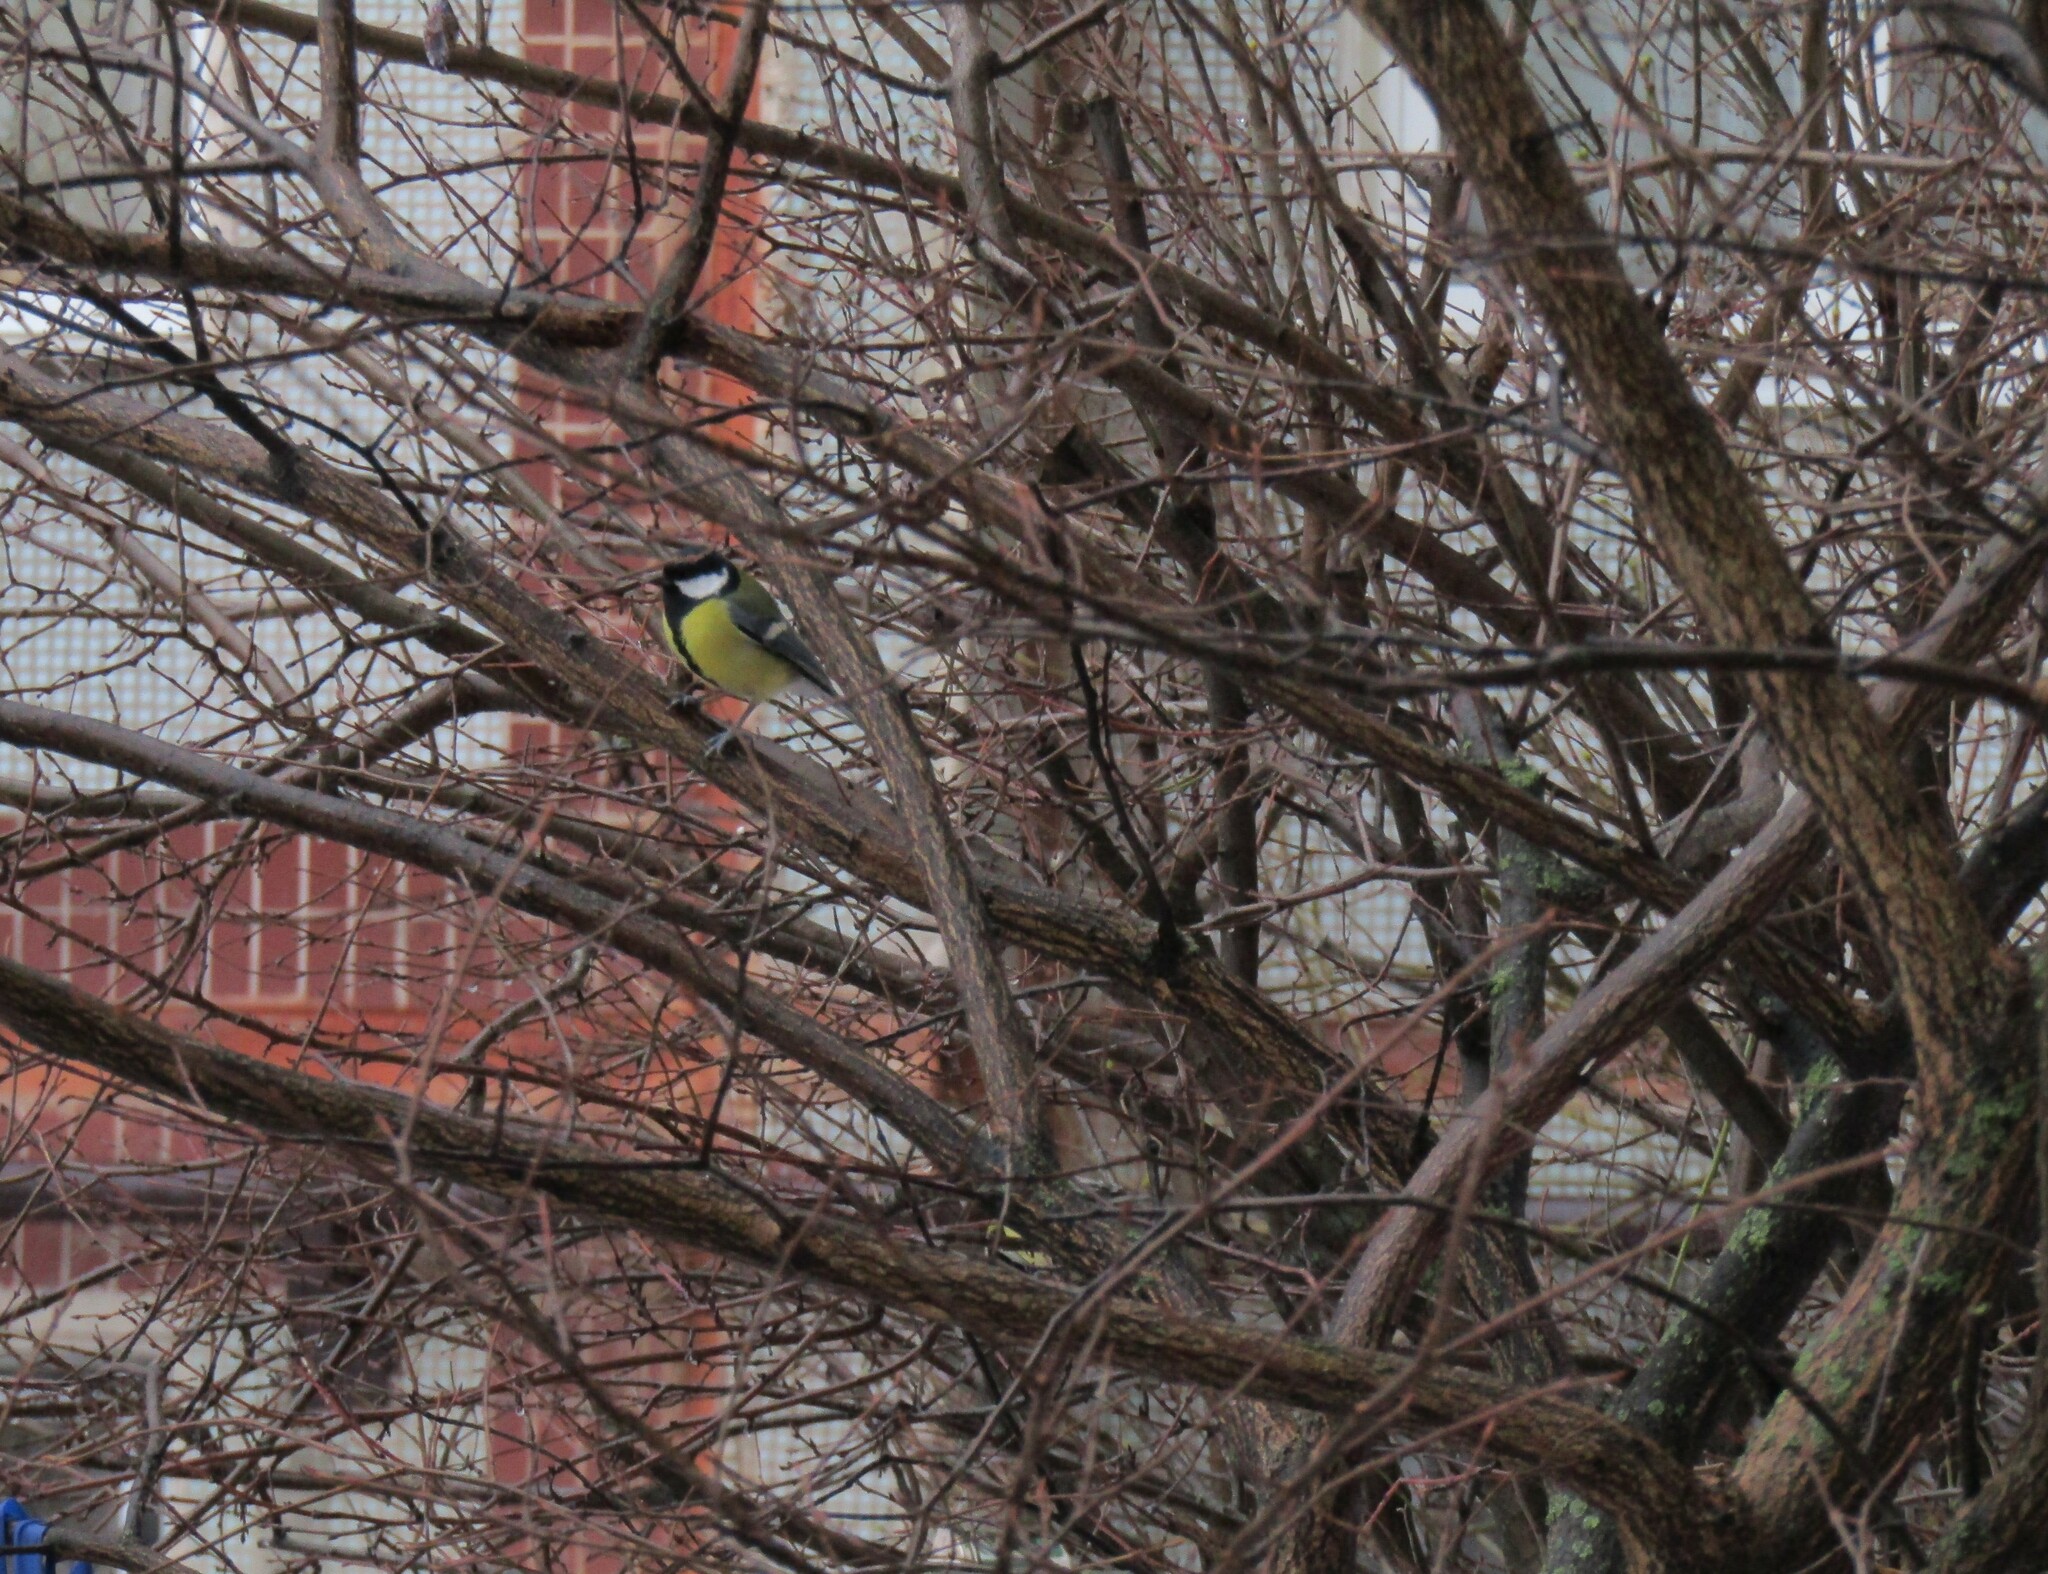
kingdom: Animalia
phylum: Chordata
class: Aves
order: Passeriformes
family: Paridae
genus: Parus
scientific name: Parus major
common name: Great tit
